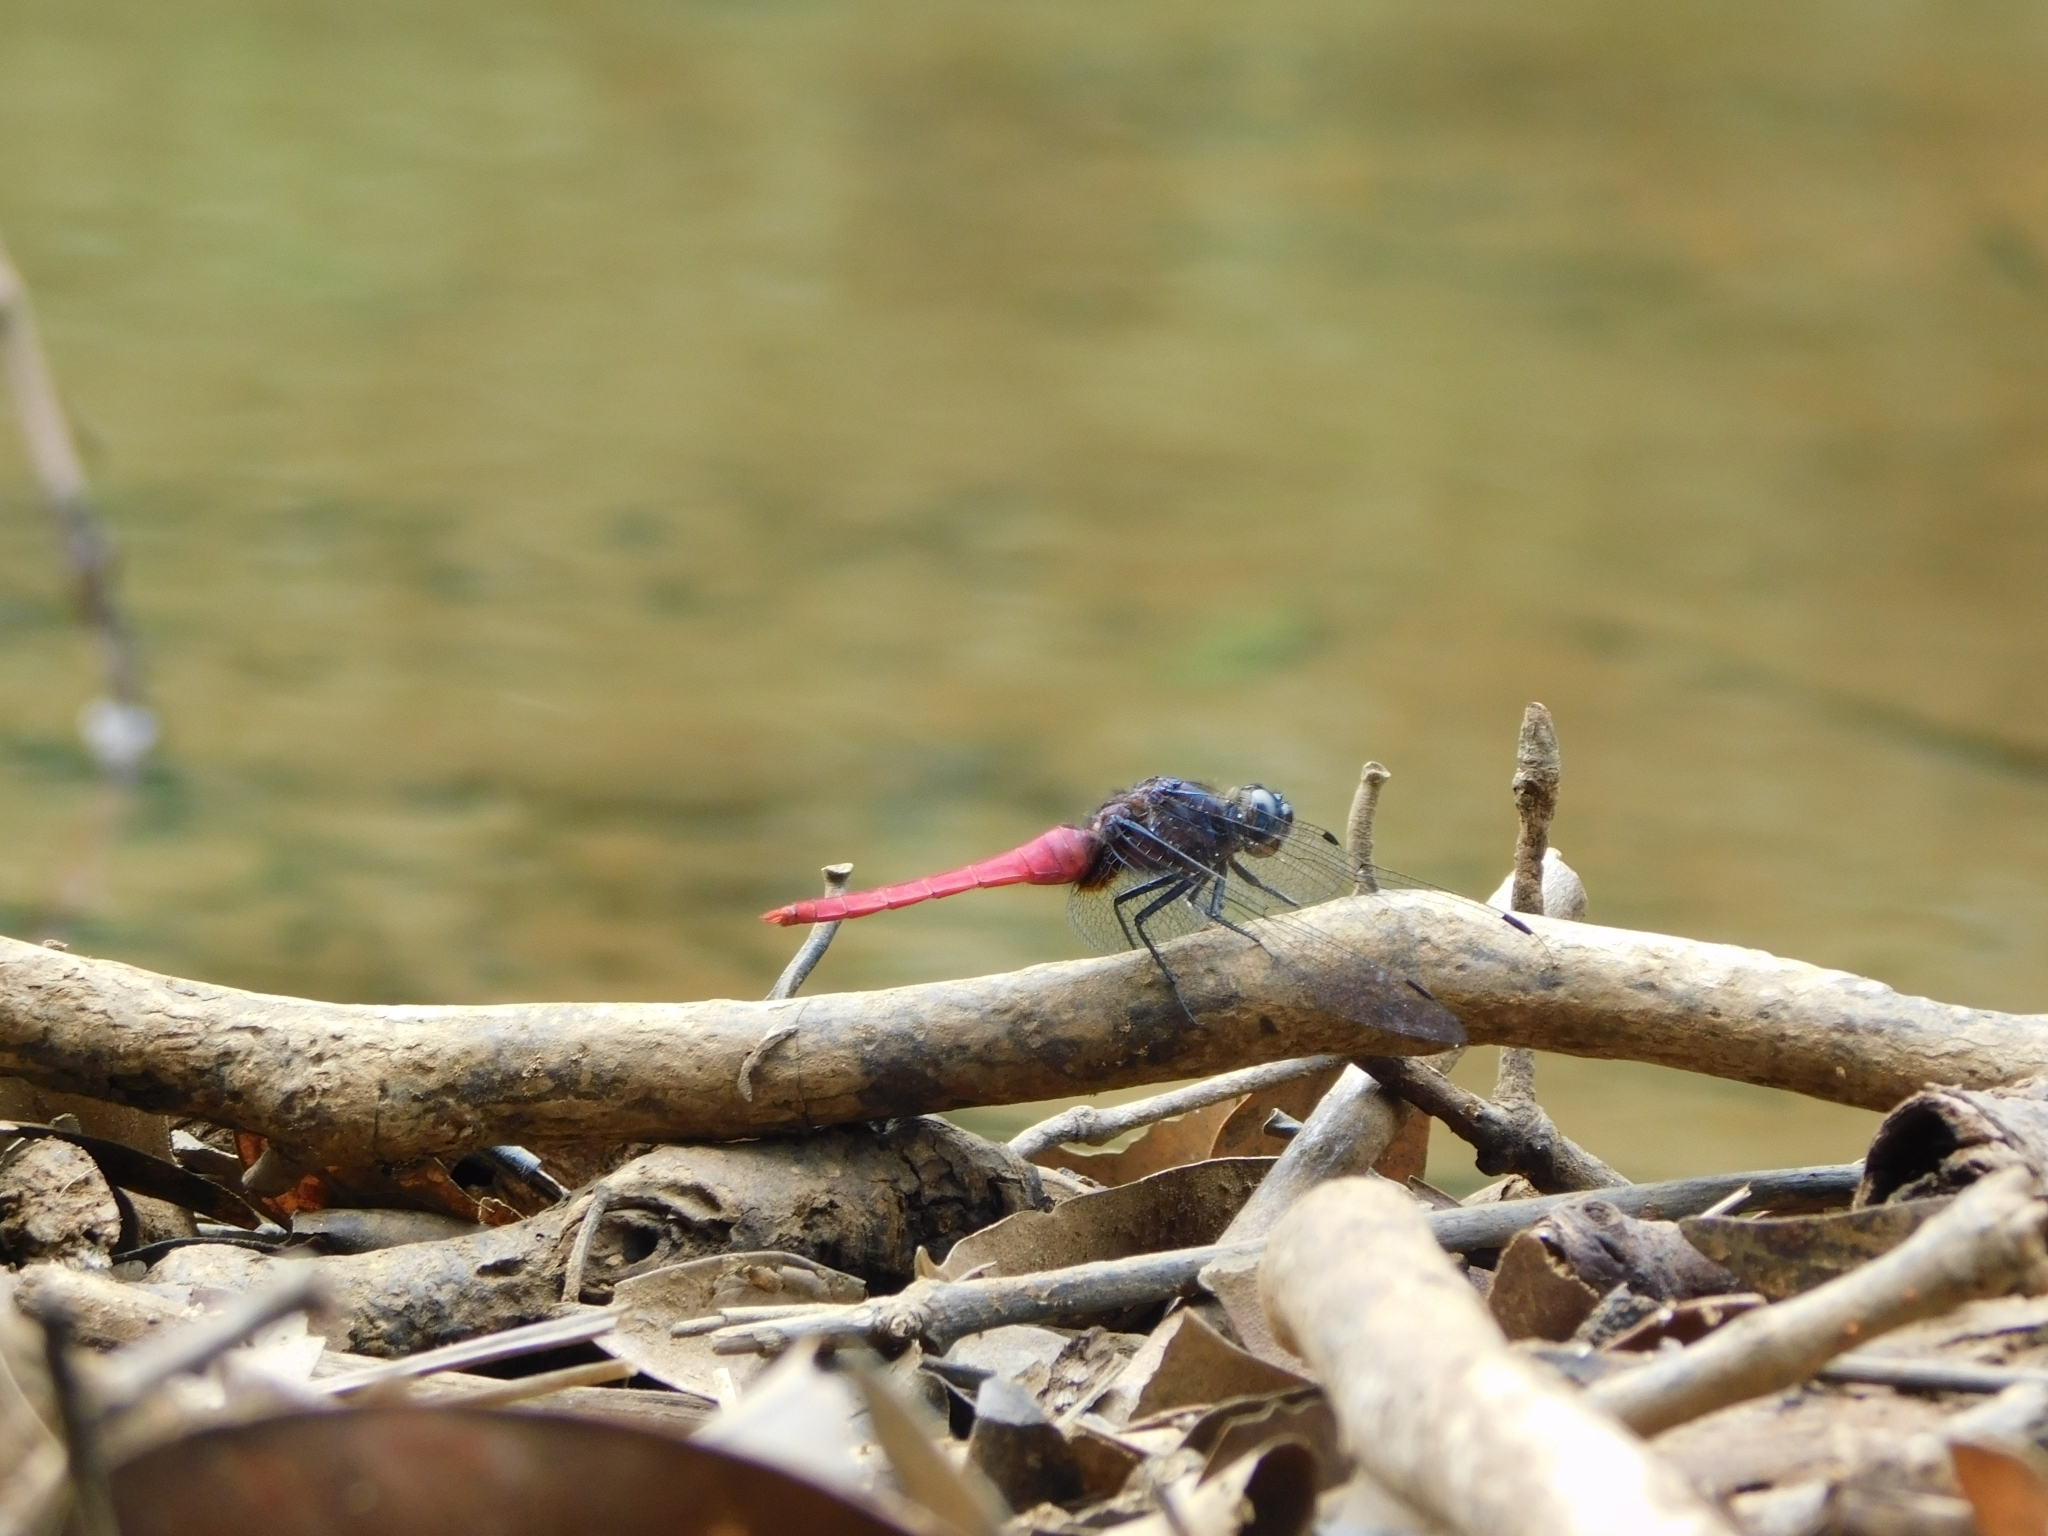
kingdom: Animalia
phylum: Arthropoda
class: Insecta
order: Odonata
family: Libellulidae
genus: Orthetrum
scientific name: Orthetrum pruinosum
